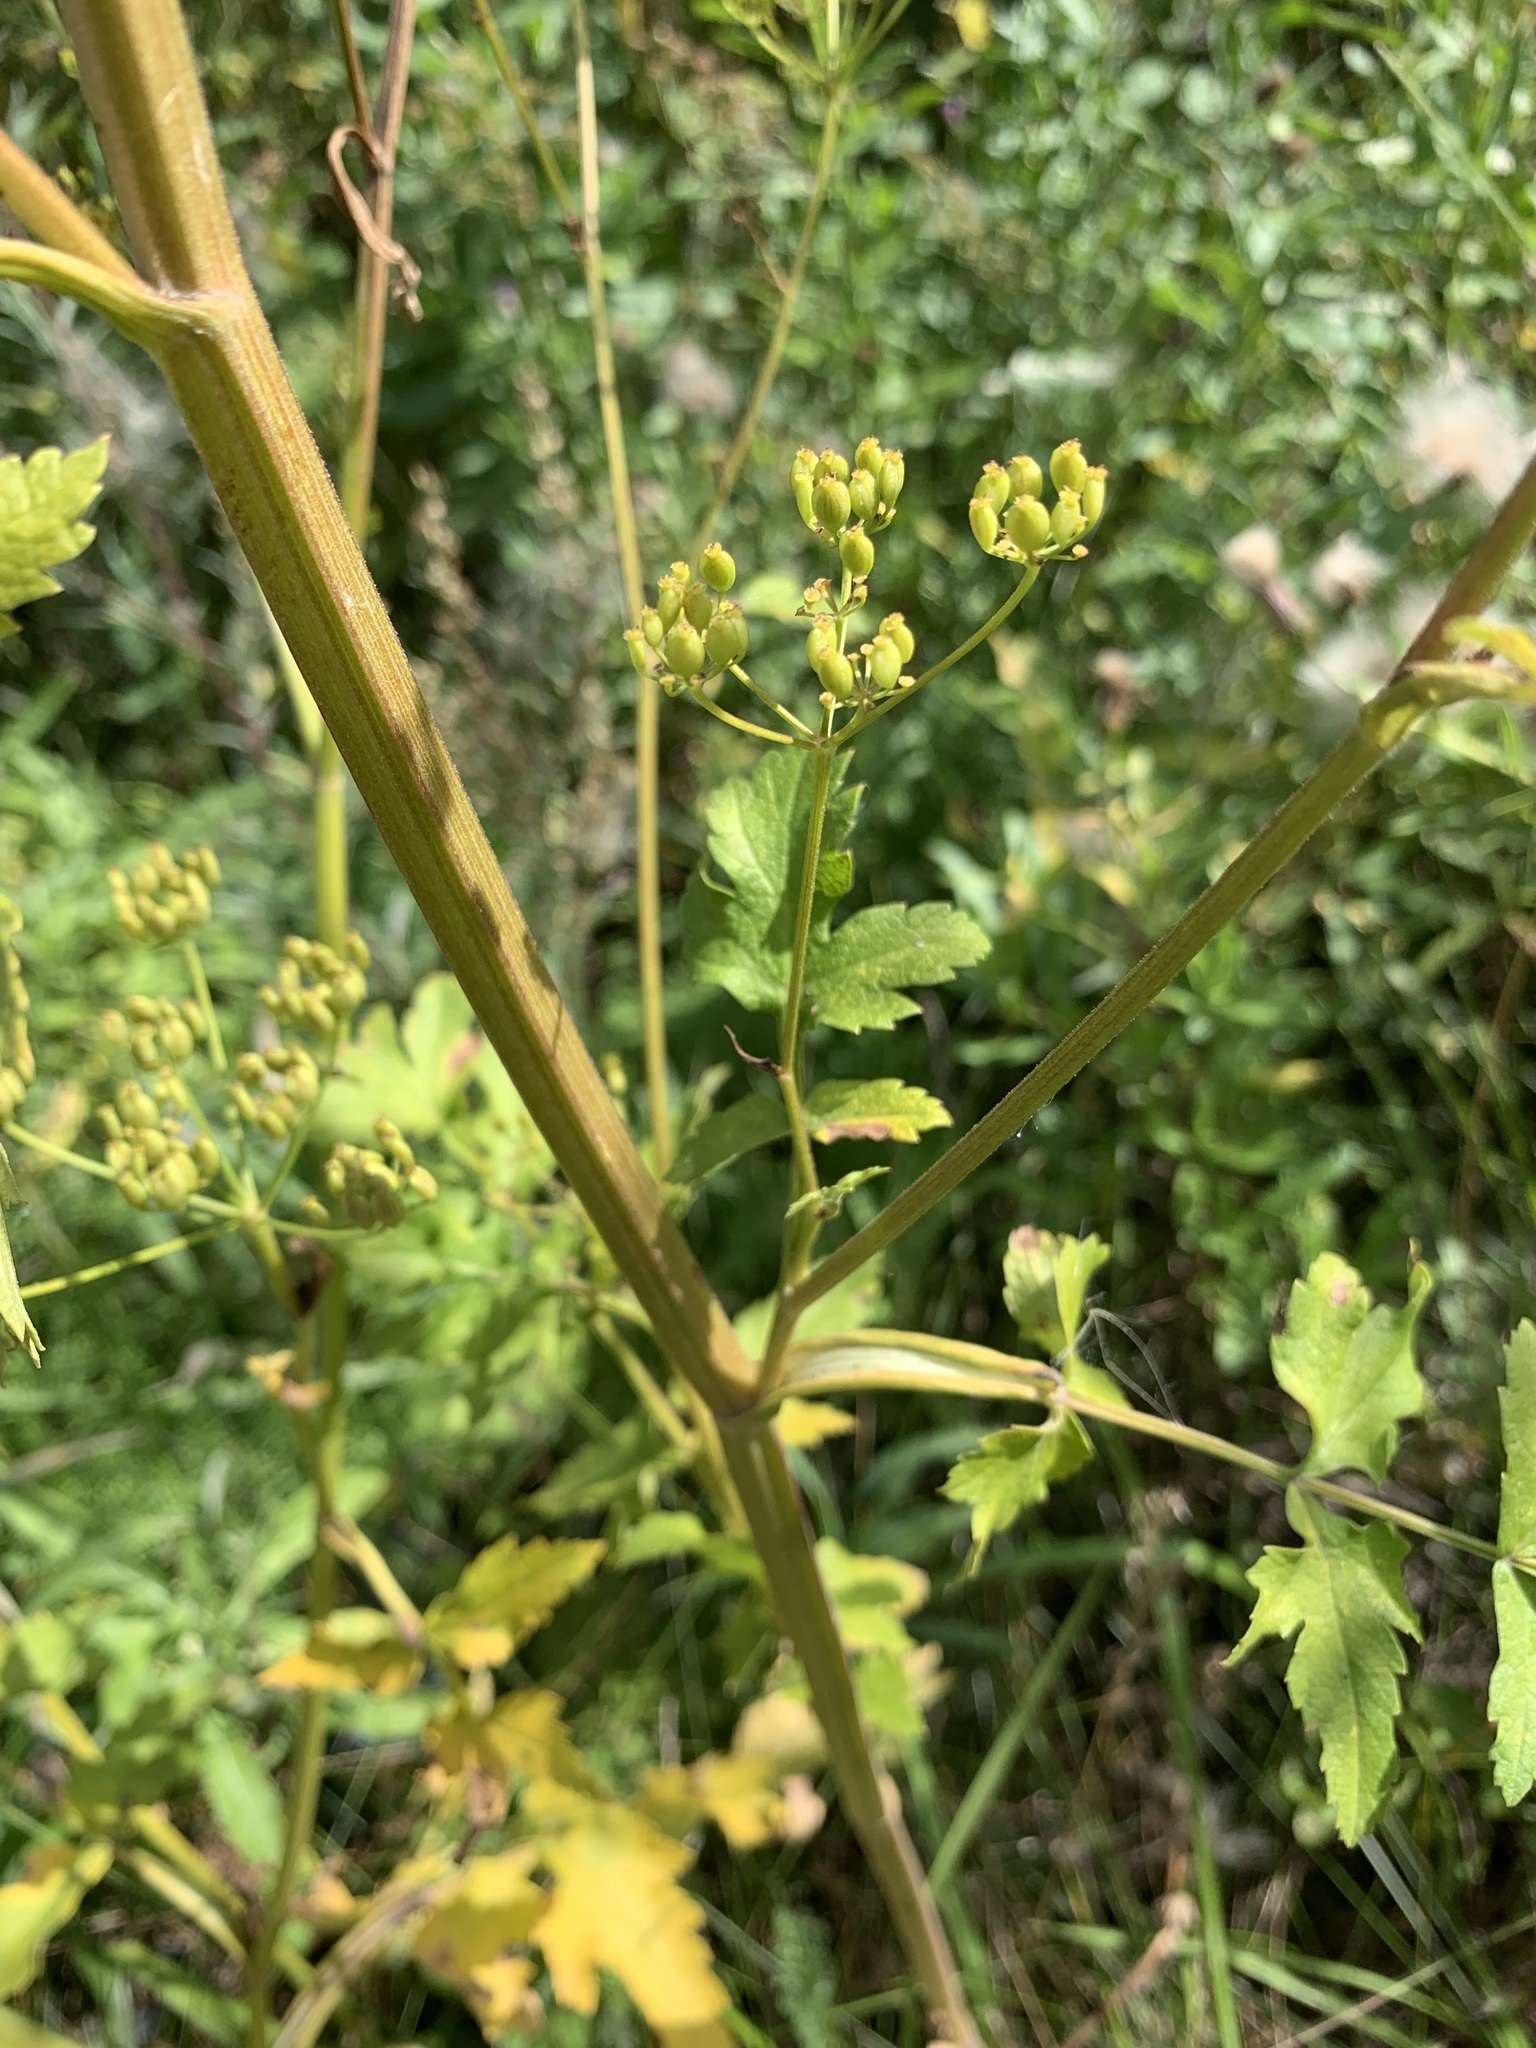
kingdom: Plantae
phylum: Tracheophyta
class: Magnoliopsida
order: Apiales
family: Apiaceae
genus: Pastinaca
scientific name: Pastinaca sativa
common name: Wild parsnip
